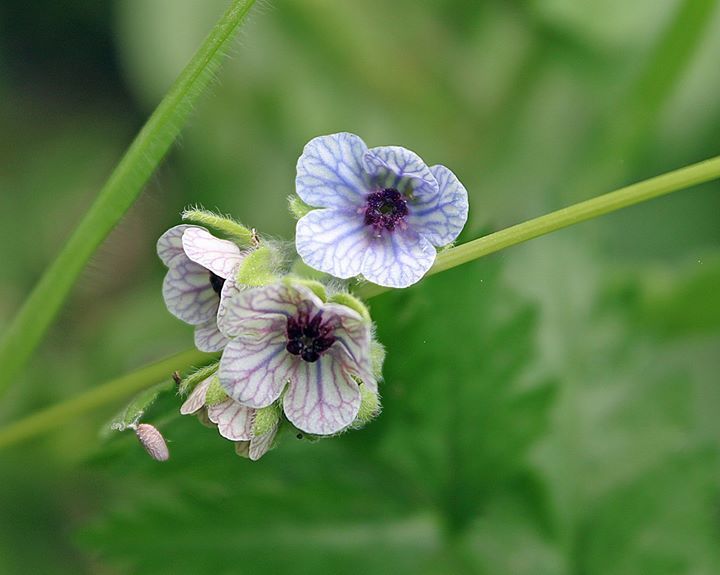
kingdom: Plantae
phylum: Tracheophyta
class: Magnoliopsida
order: Boraginales
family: Boraginaceae
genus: Cynoglossum
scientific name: Cynoglossum creticum
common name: Blue hound's tongue
